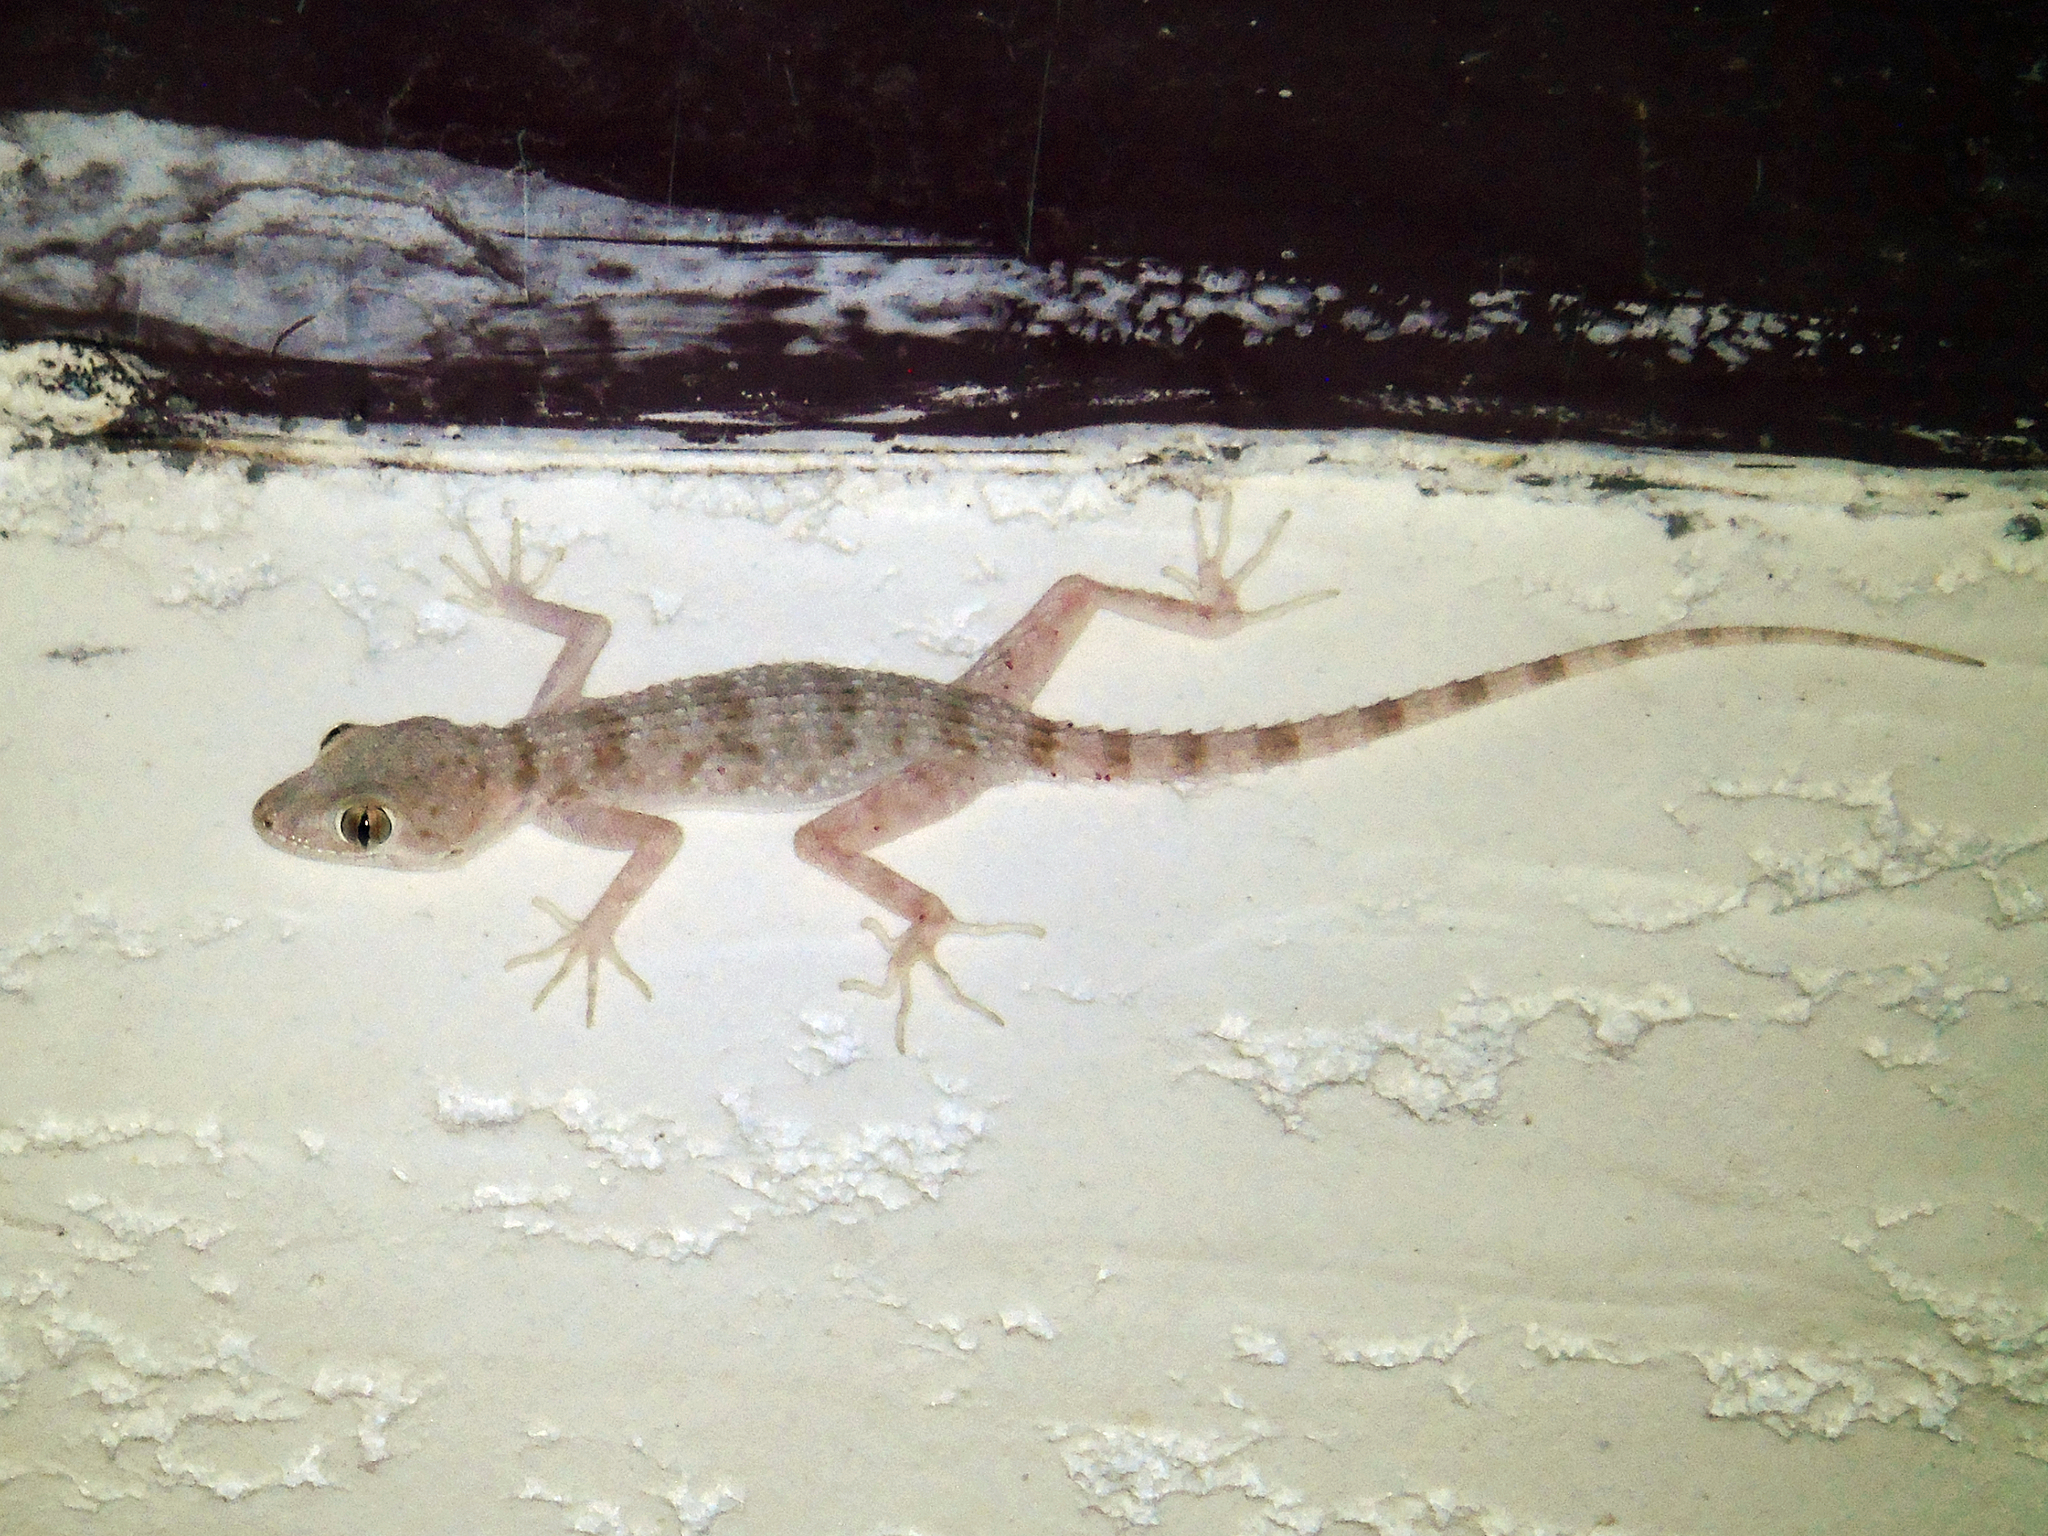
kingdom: Animalia
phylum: Chordata
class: Squamata
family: Gekkonidae
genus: Tenuidactylus
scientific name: Tenuidactylus bogdanovi
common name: Bogdanov’s thin-toed gecko
